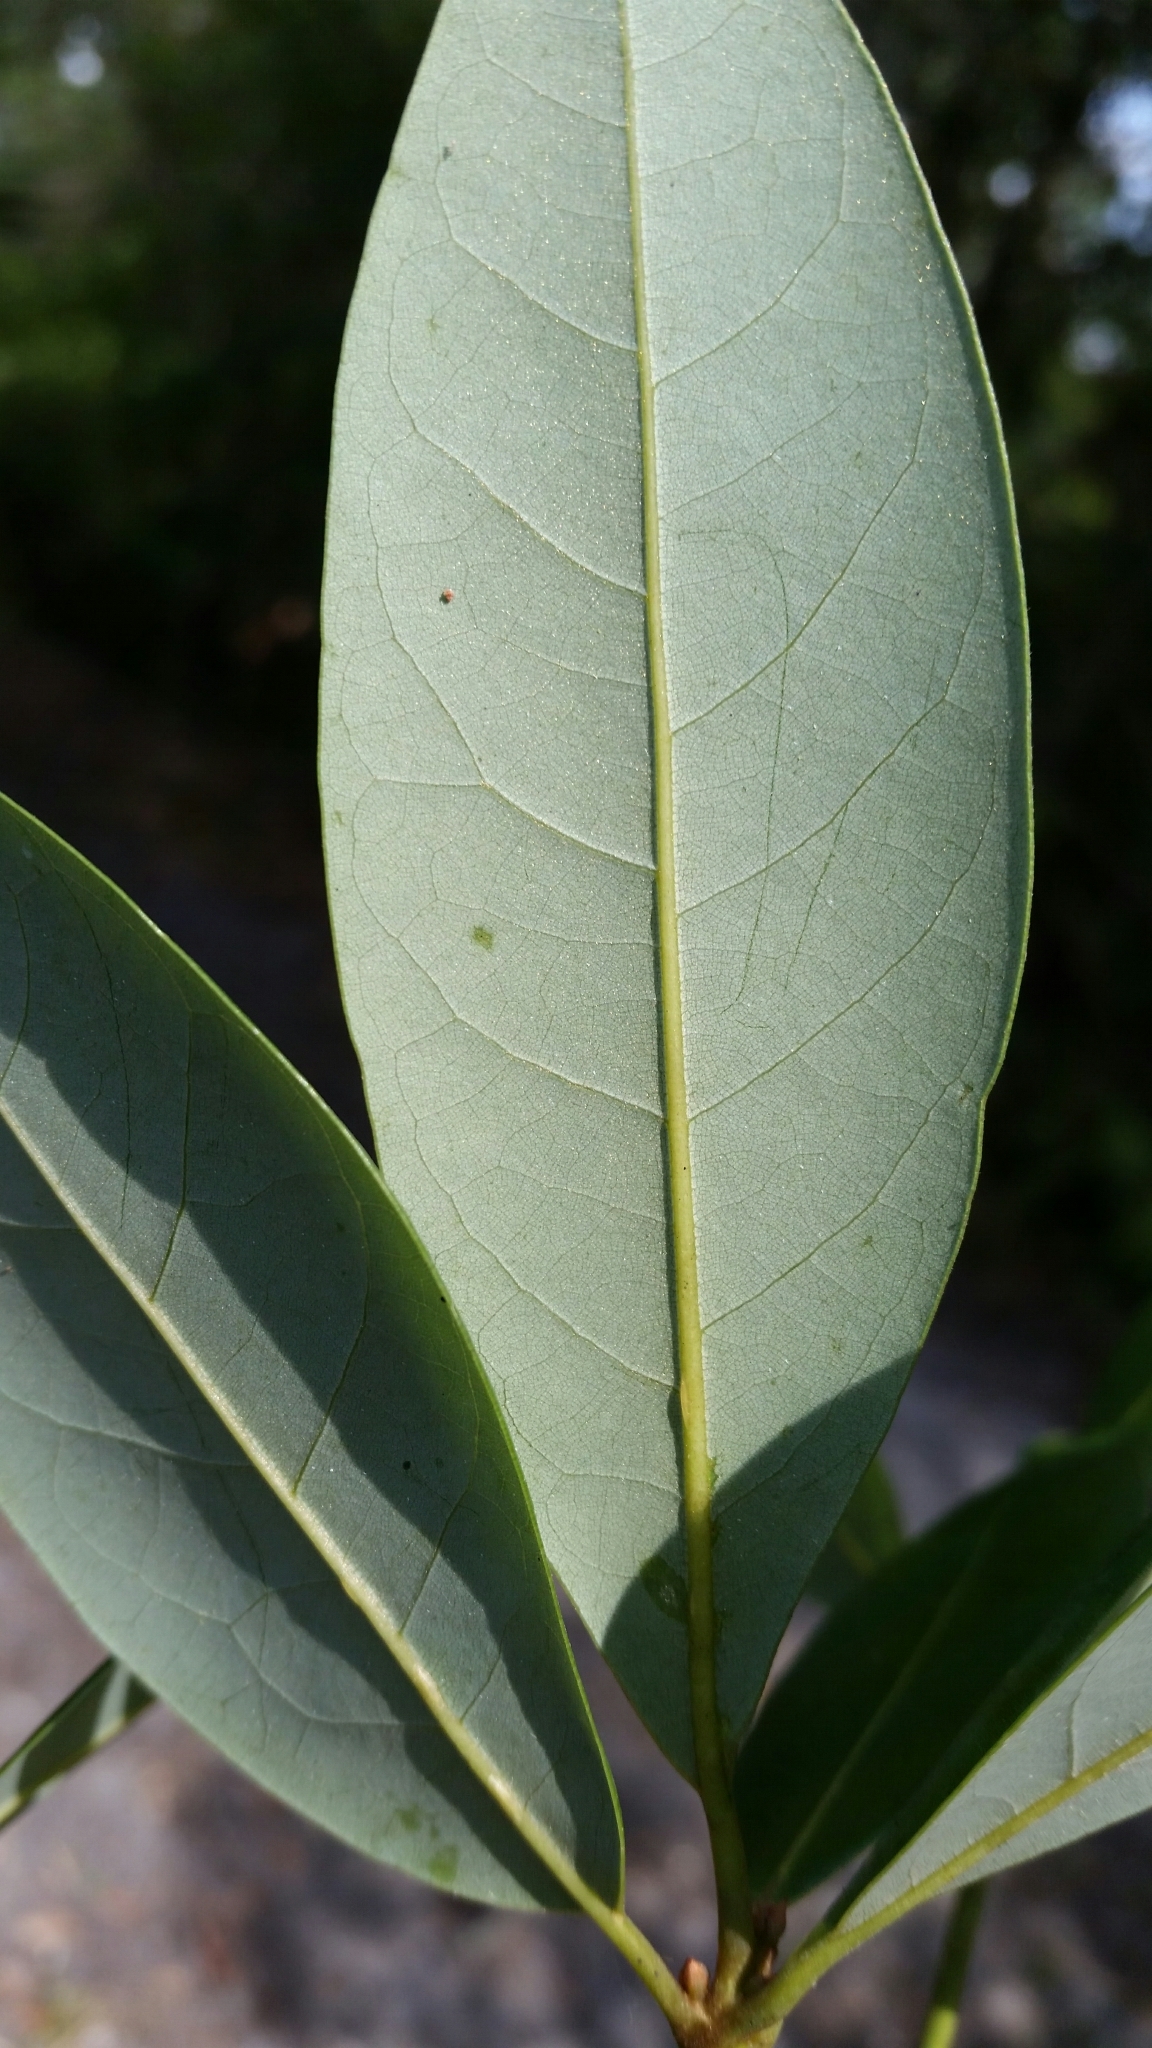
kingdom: Plantae
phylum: Tracheophyta
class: Magnoliopsida
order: Laurales
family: Lauraceae
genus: Persea
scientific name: Persea borbonia
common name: Redbay
